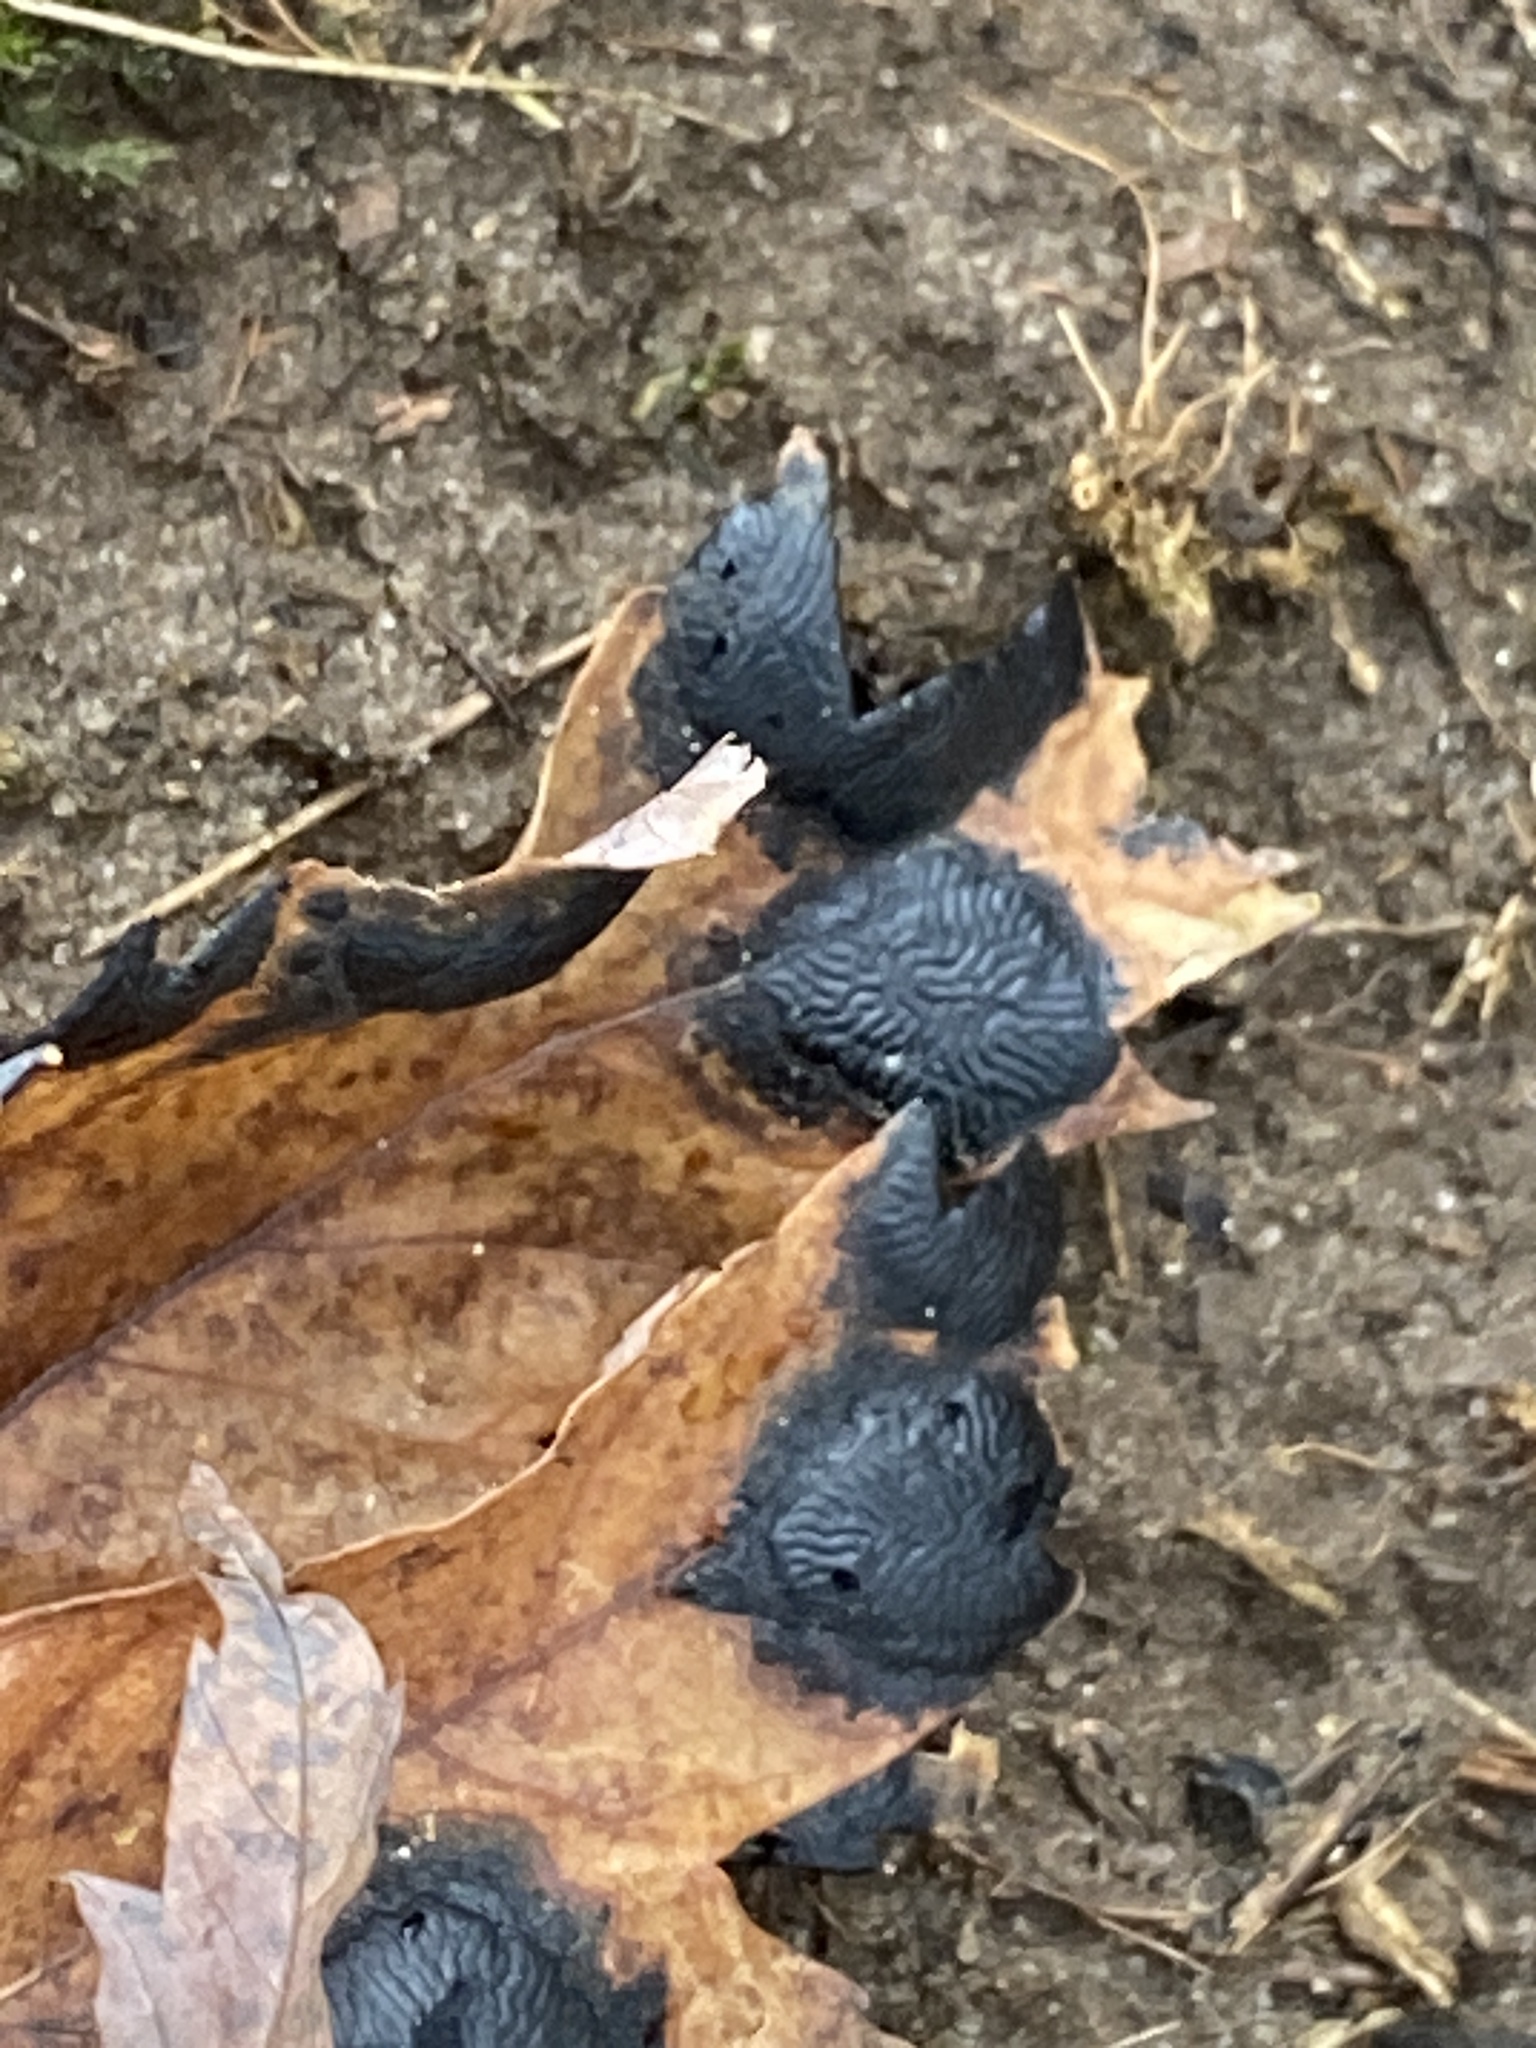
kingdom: Fungi
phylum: Ascomycota
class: Leotiomycetes
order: Rhytismatales
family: Rhytismataceae
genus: Rhytisma
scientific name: Rhytisma americanum
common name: American tar spot
